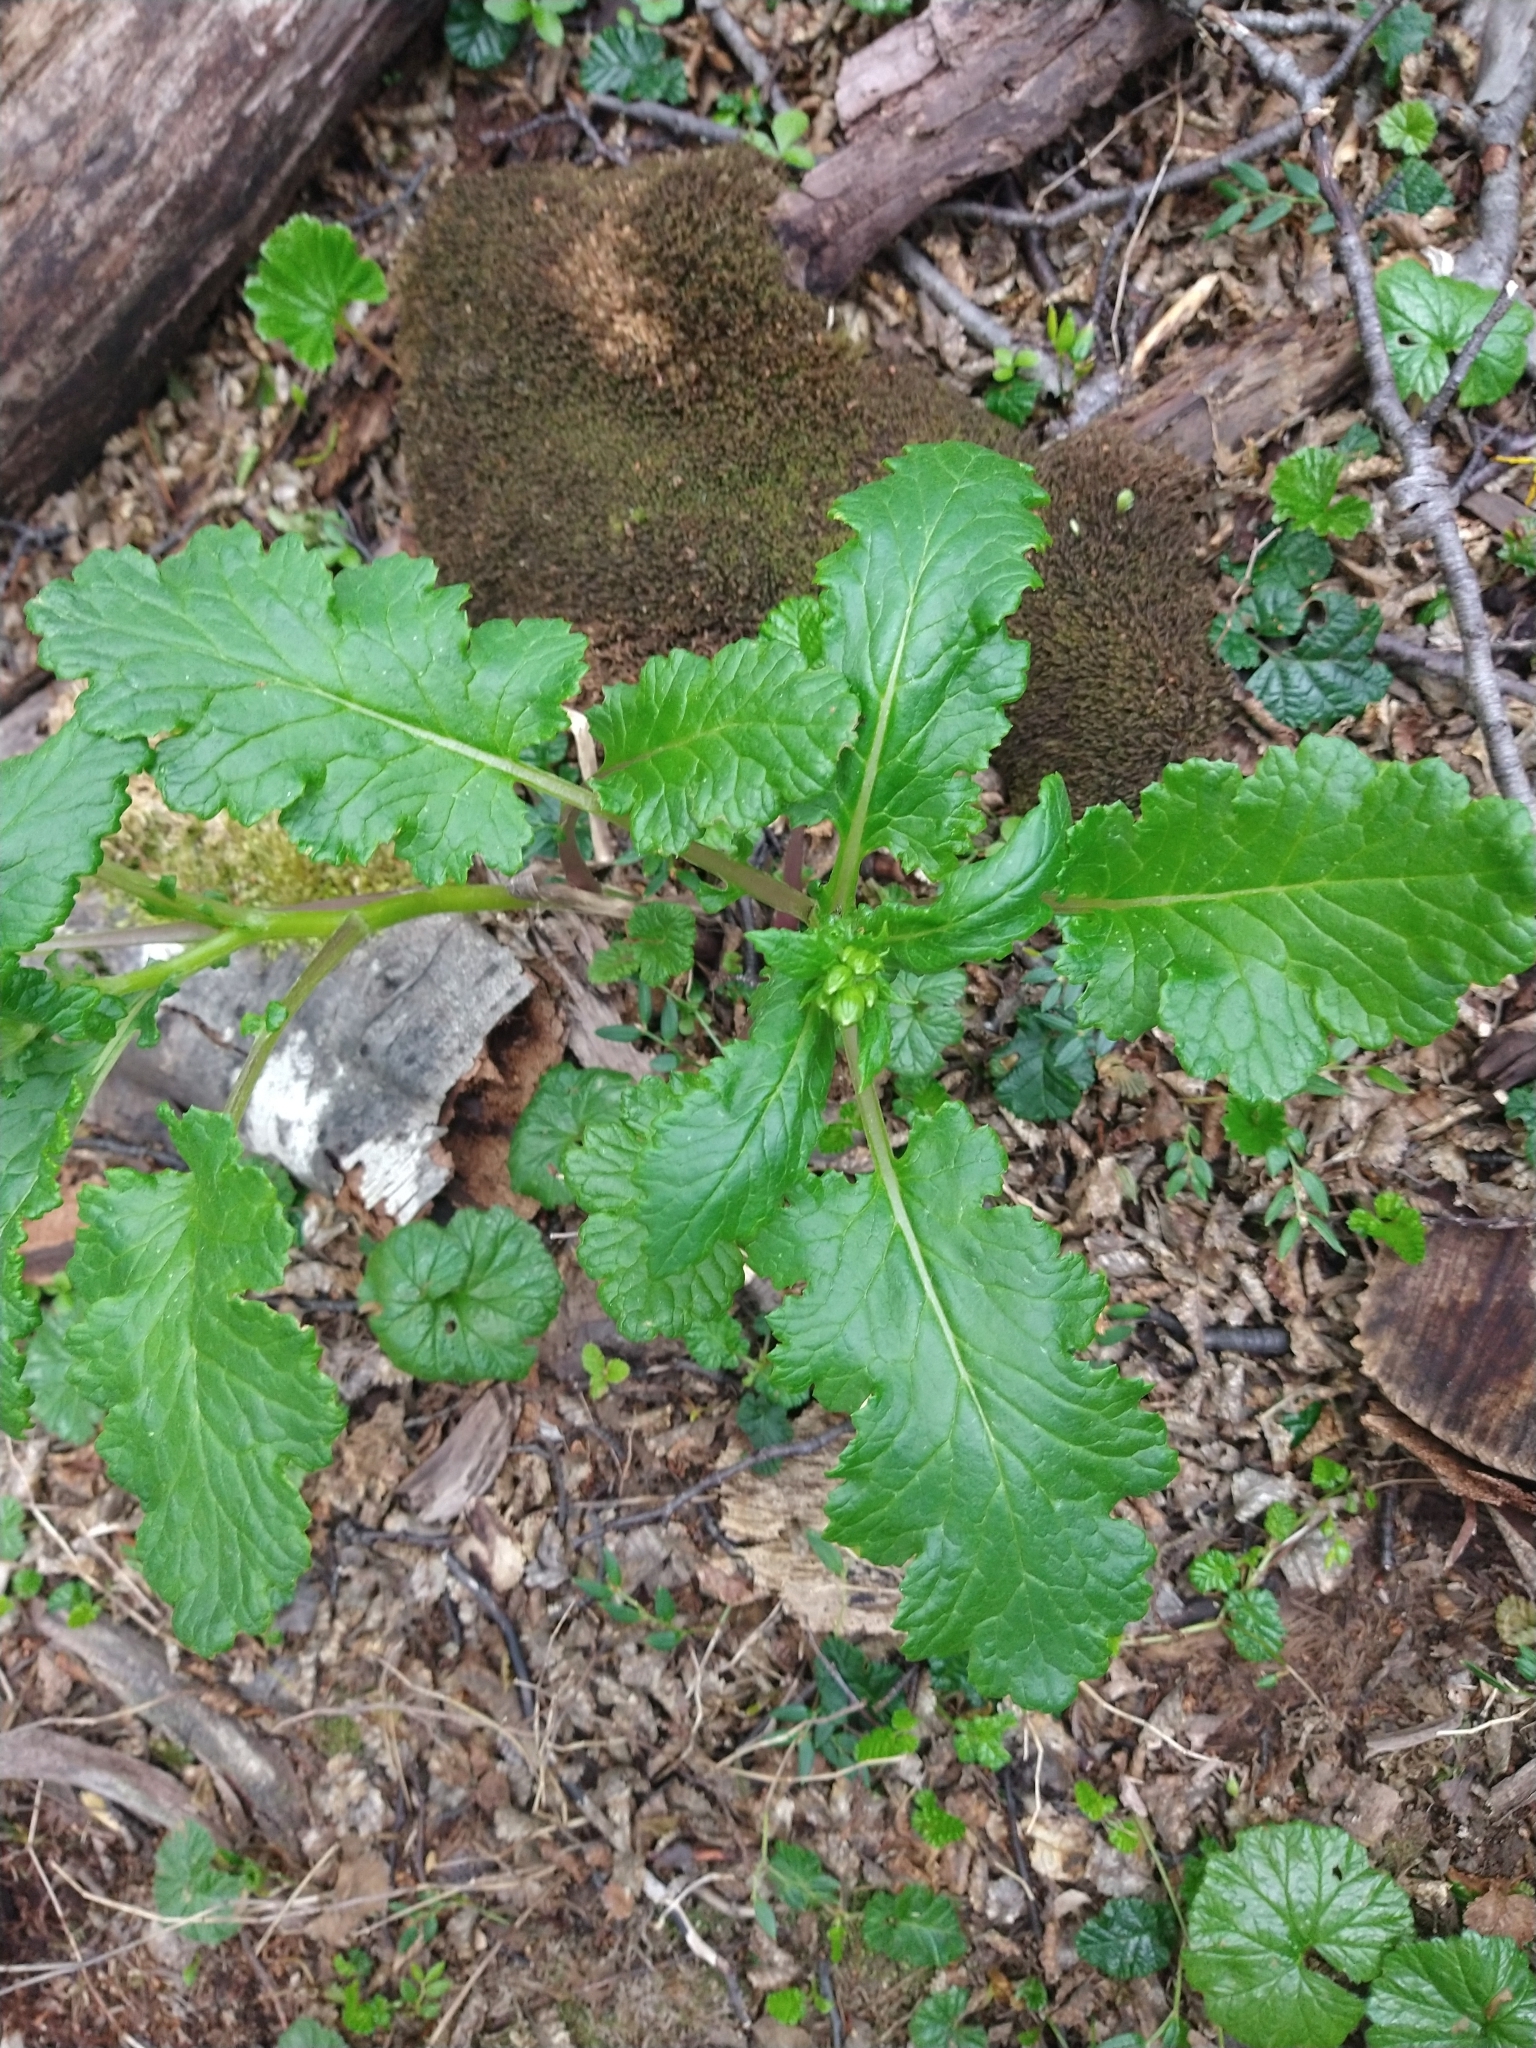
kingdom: Plantae
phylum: Tracheophyta
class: Magnoliopsida
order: Asterales
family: Asteraceae
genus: Iocenes
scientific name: Iocenes virens
